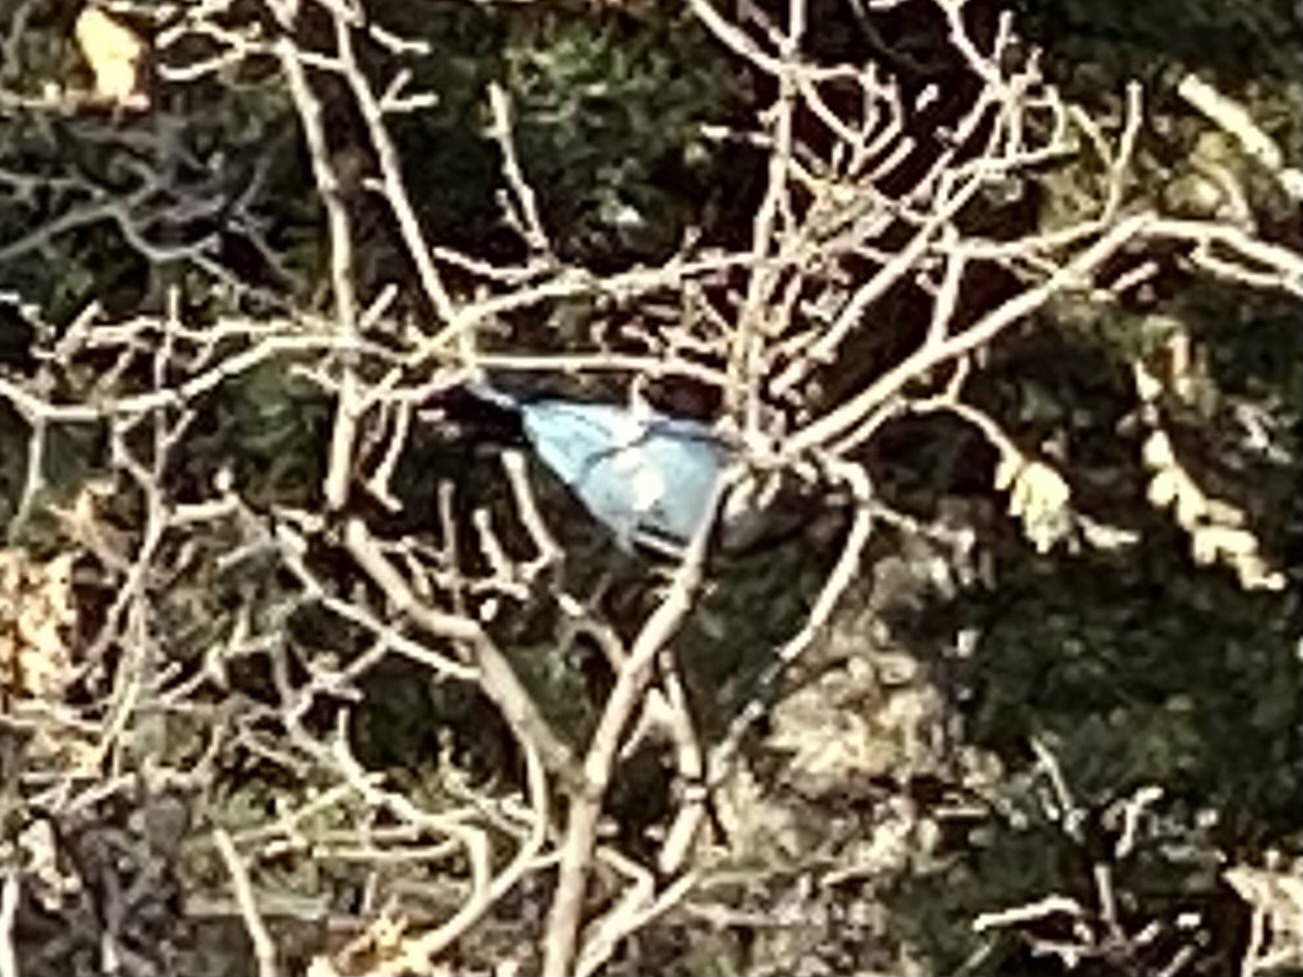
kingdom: Animalia
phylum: Chordata
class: Aves
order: Passeriformes
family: Corvidae
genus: Cyanocitta
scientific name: Cyanocitta stelleri
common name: Steller's jay
